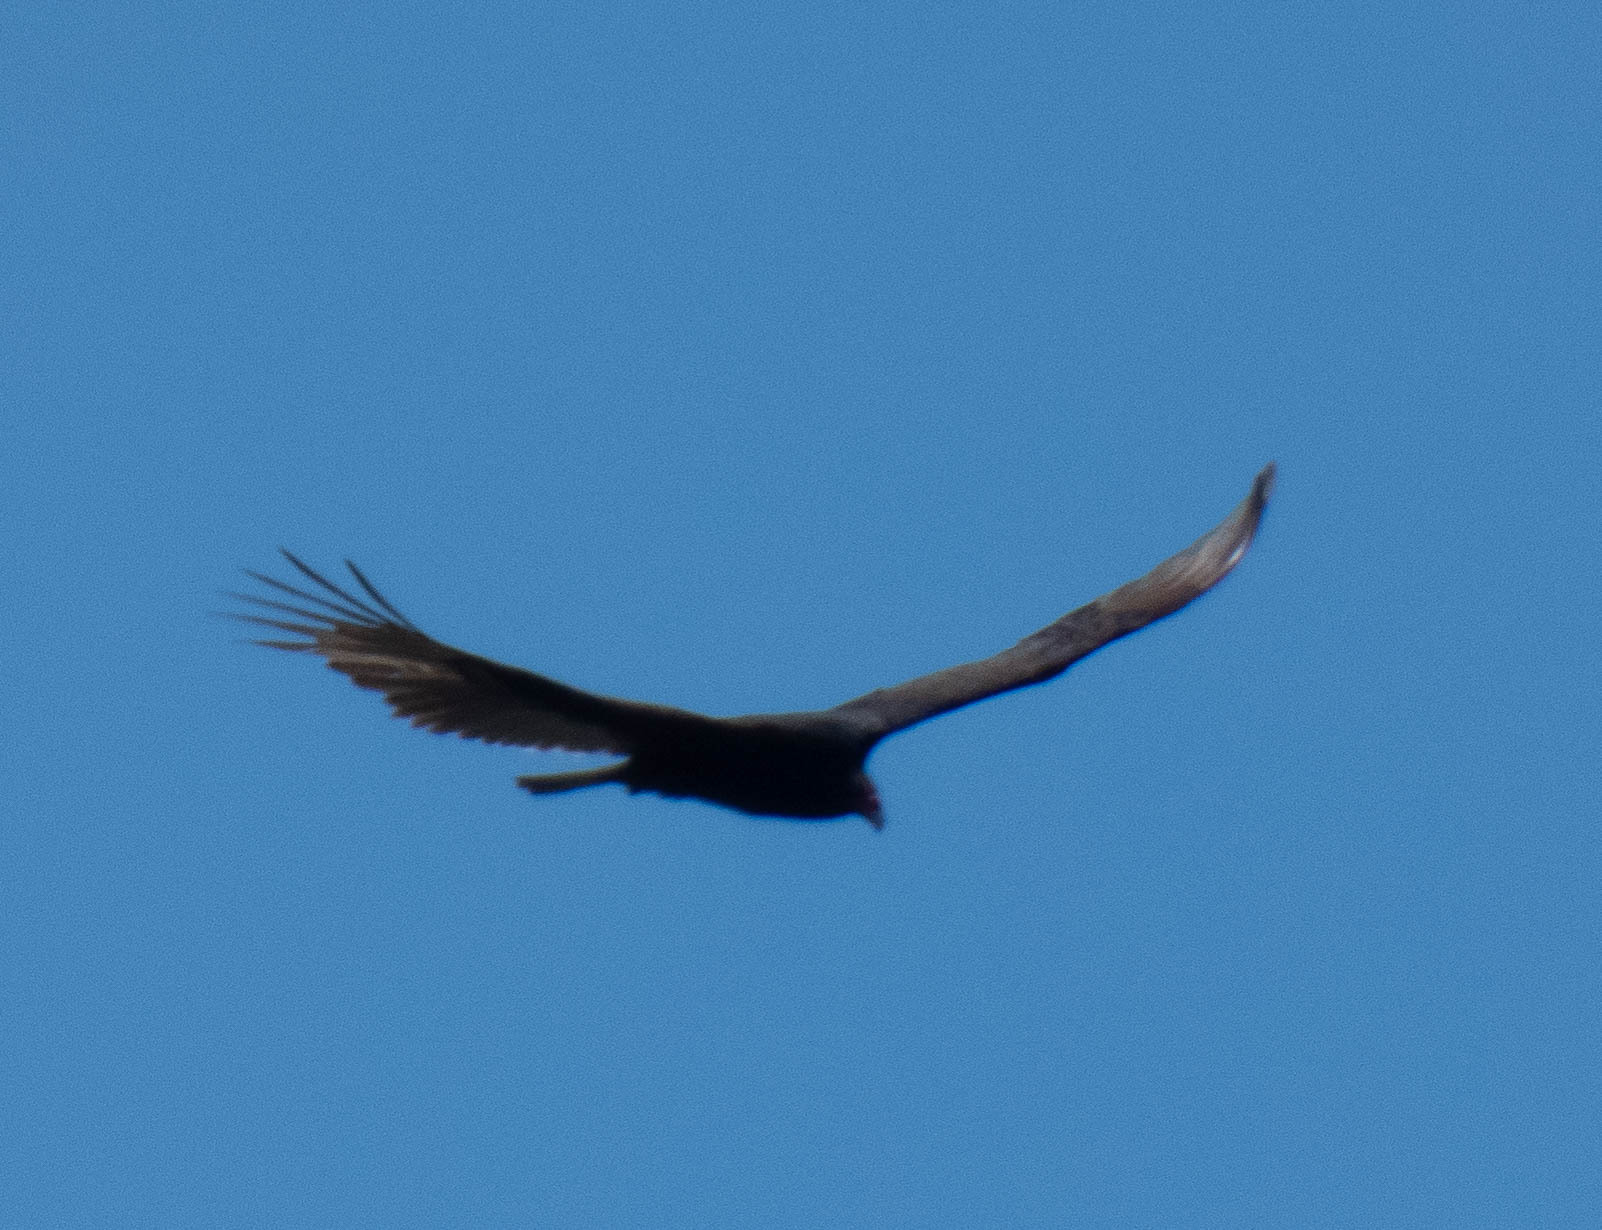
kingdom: Animalia
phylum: Chordata
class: Aves
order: Accipitriformes
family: Cathartidae
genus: Cathartes
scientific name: Cathartes aura
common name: Turkey vulture
